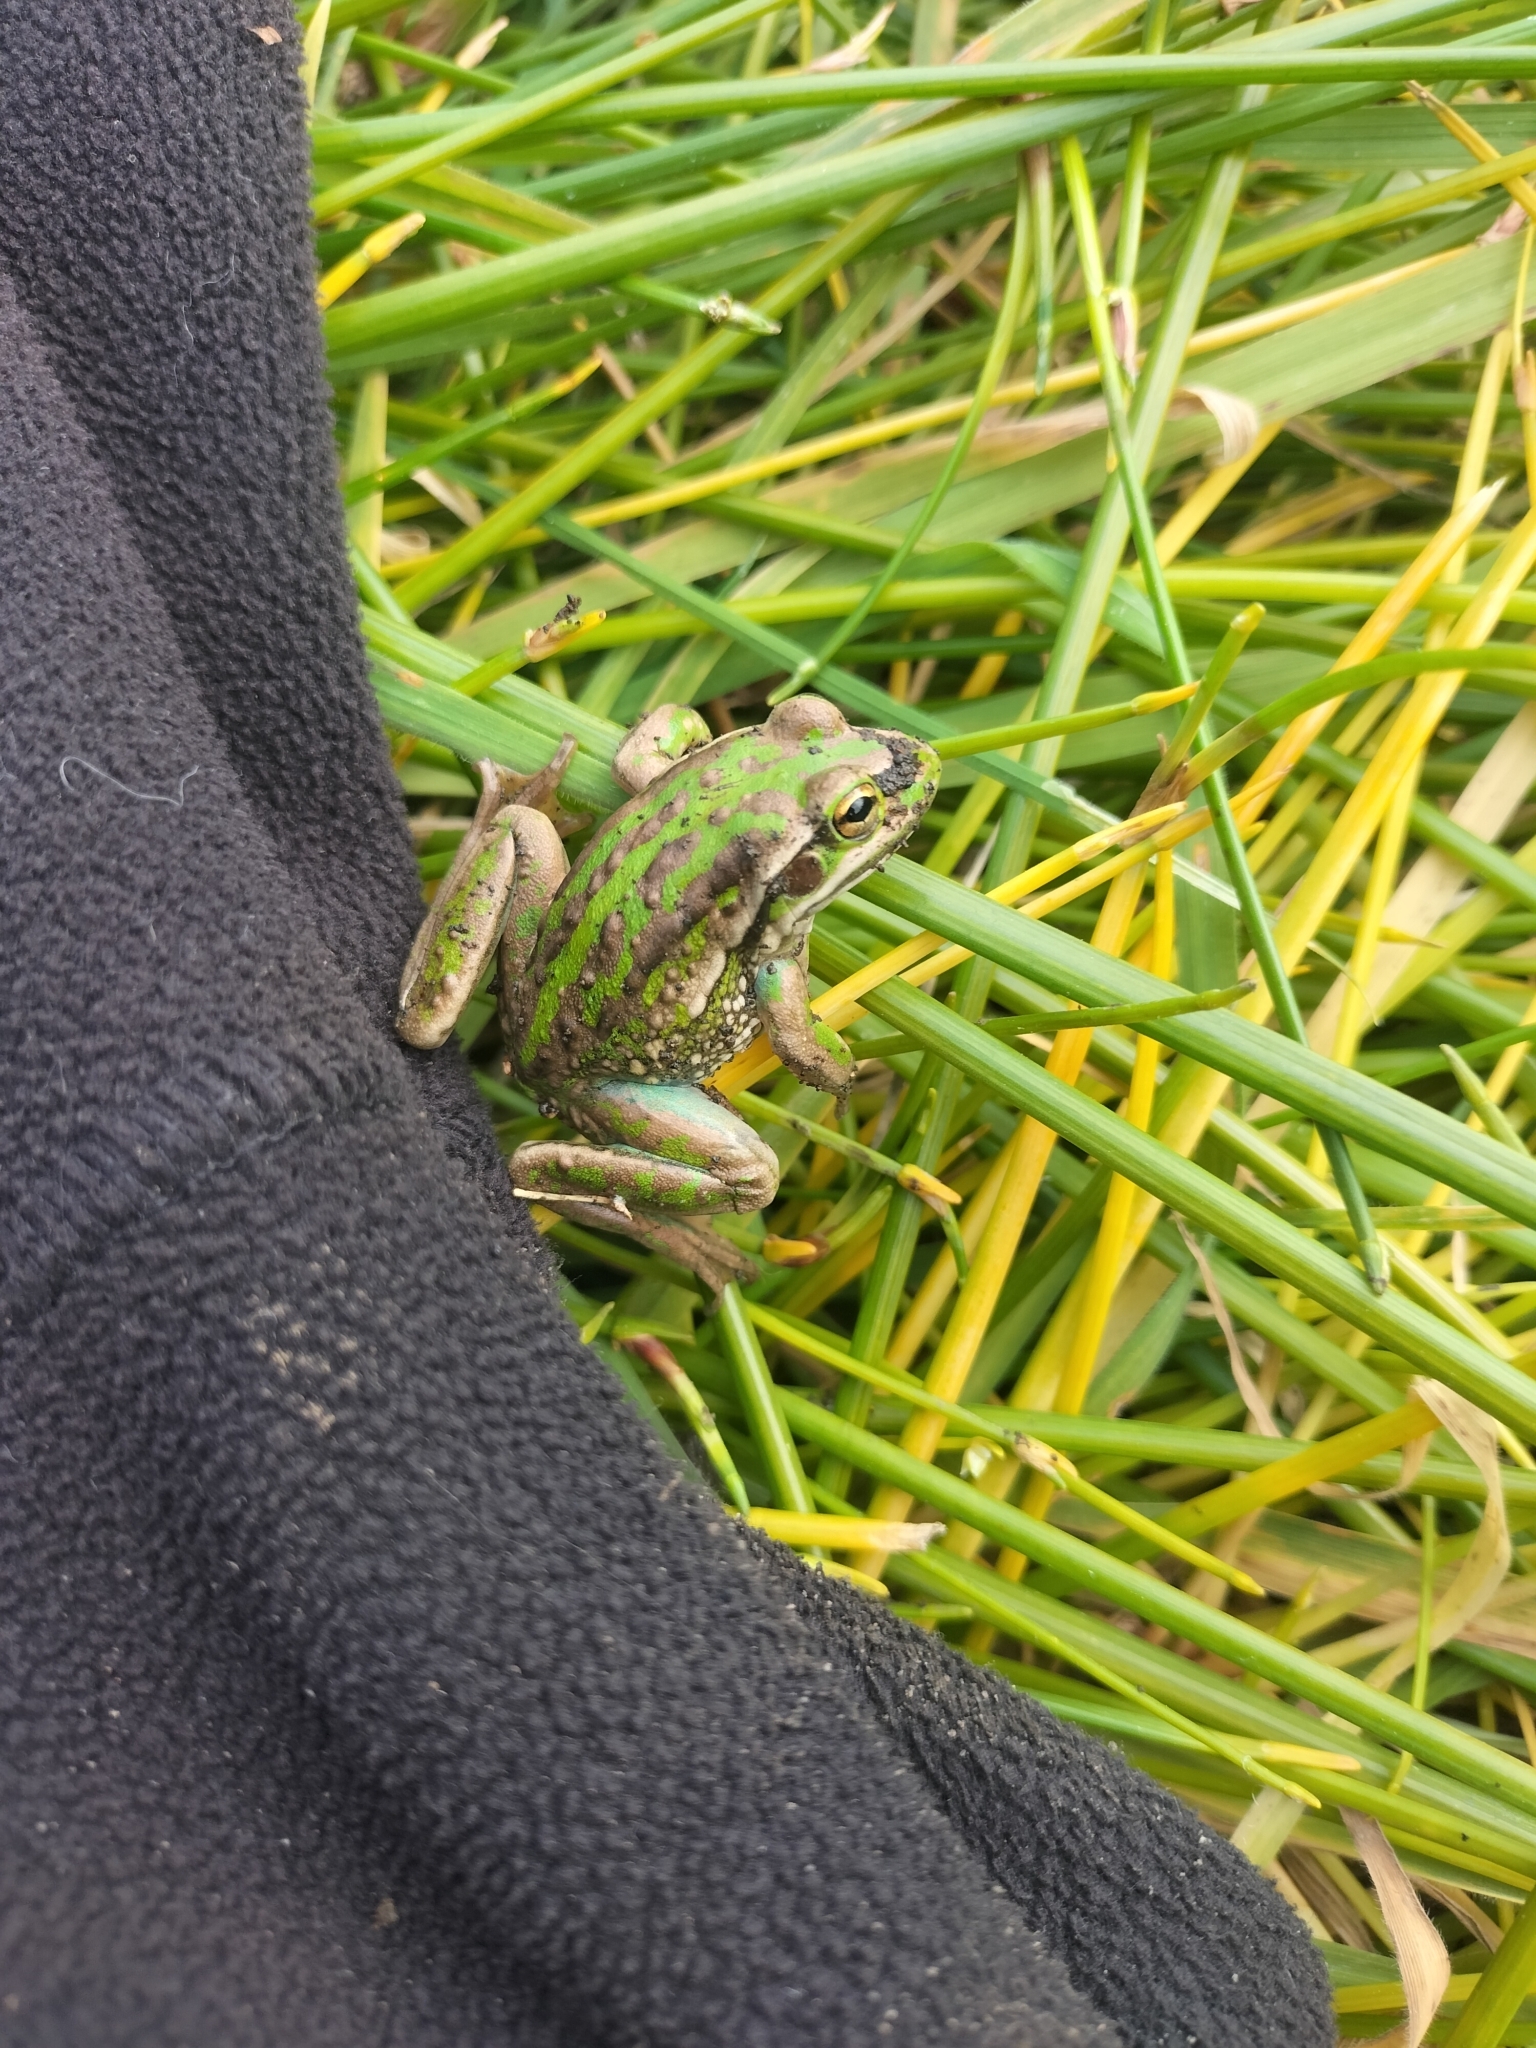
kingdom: Animalia
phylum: Chordata
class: Amphibia
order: Anura
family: Pelodryadidae
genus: Ranoidea
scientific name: Ranoidea raniformis
